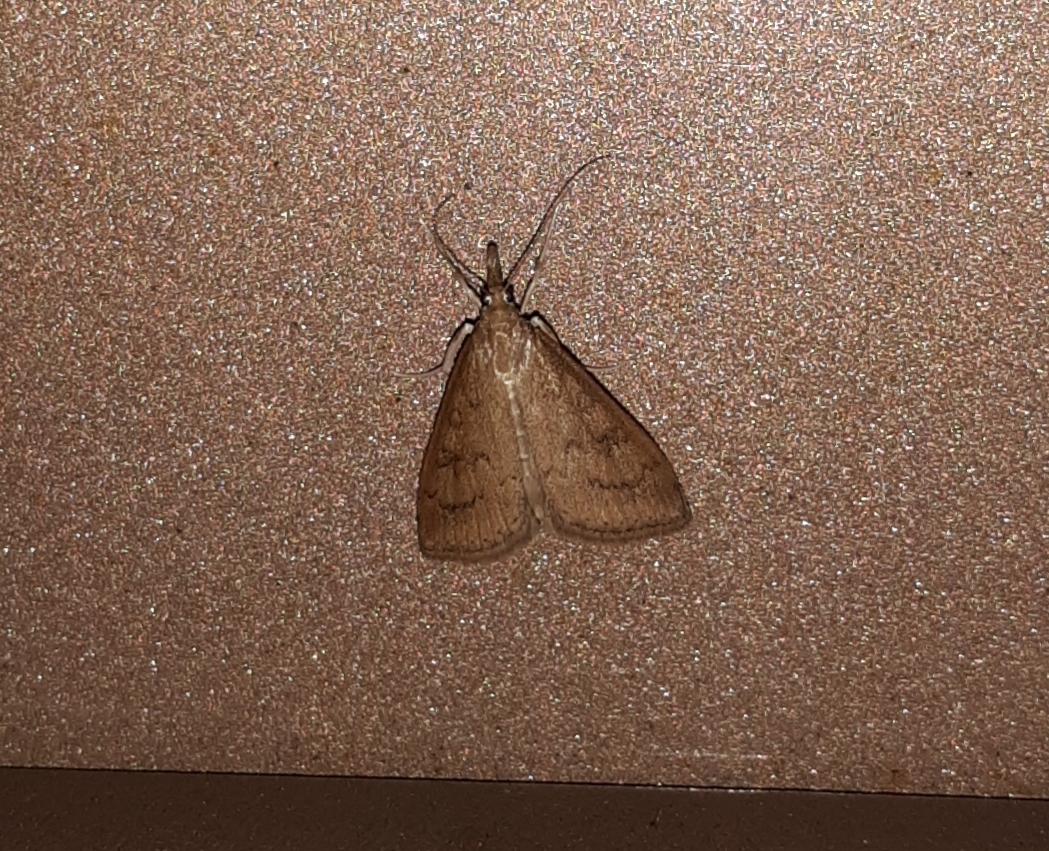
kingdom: Animalia
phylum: Arthropoda
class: Insecta
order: Lepidoptera
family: Crambidae
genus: Udea
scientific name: Udea rubigalis
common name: Celery leaftier moth
